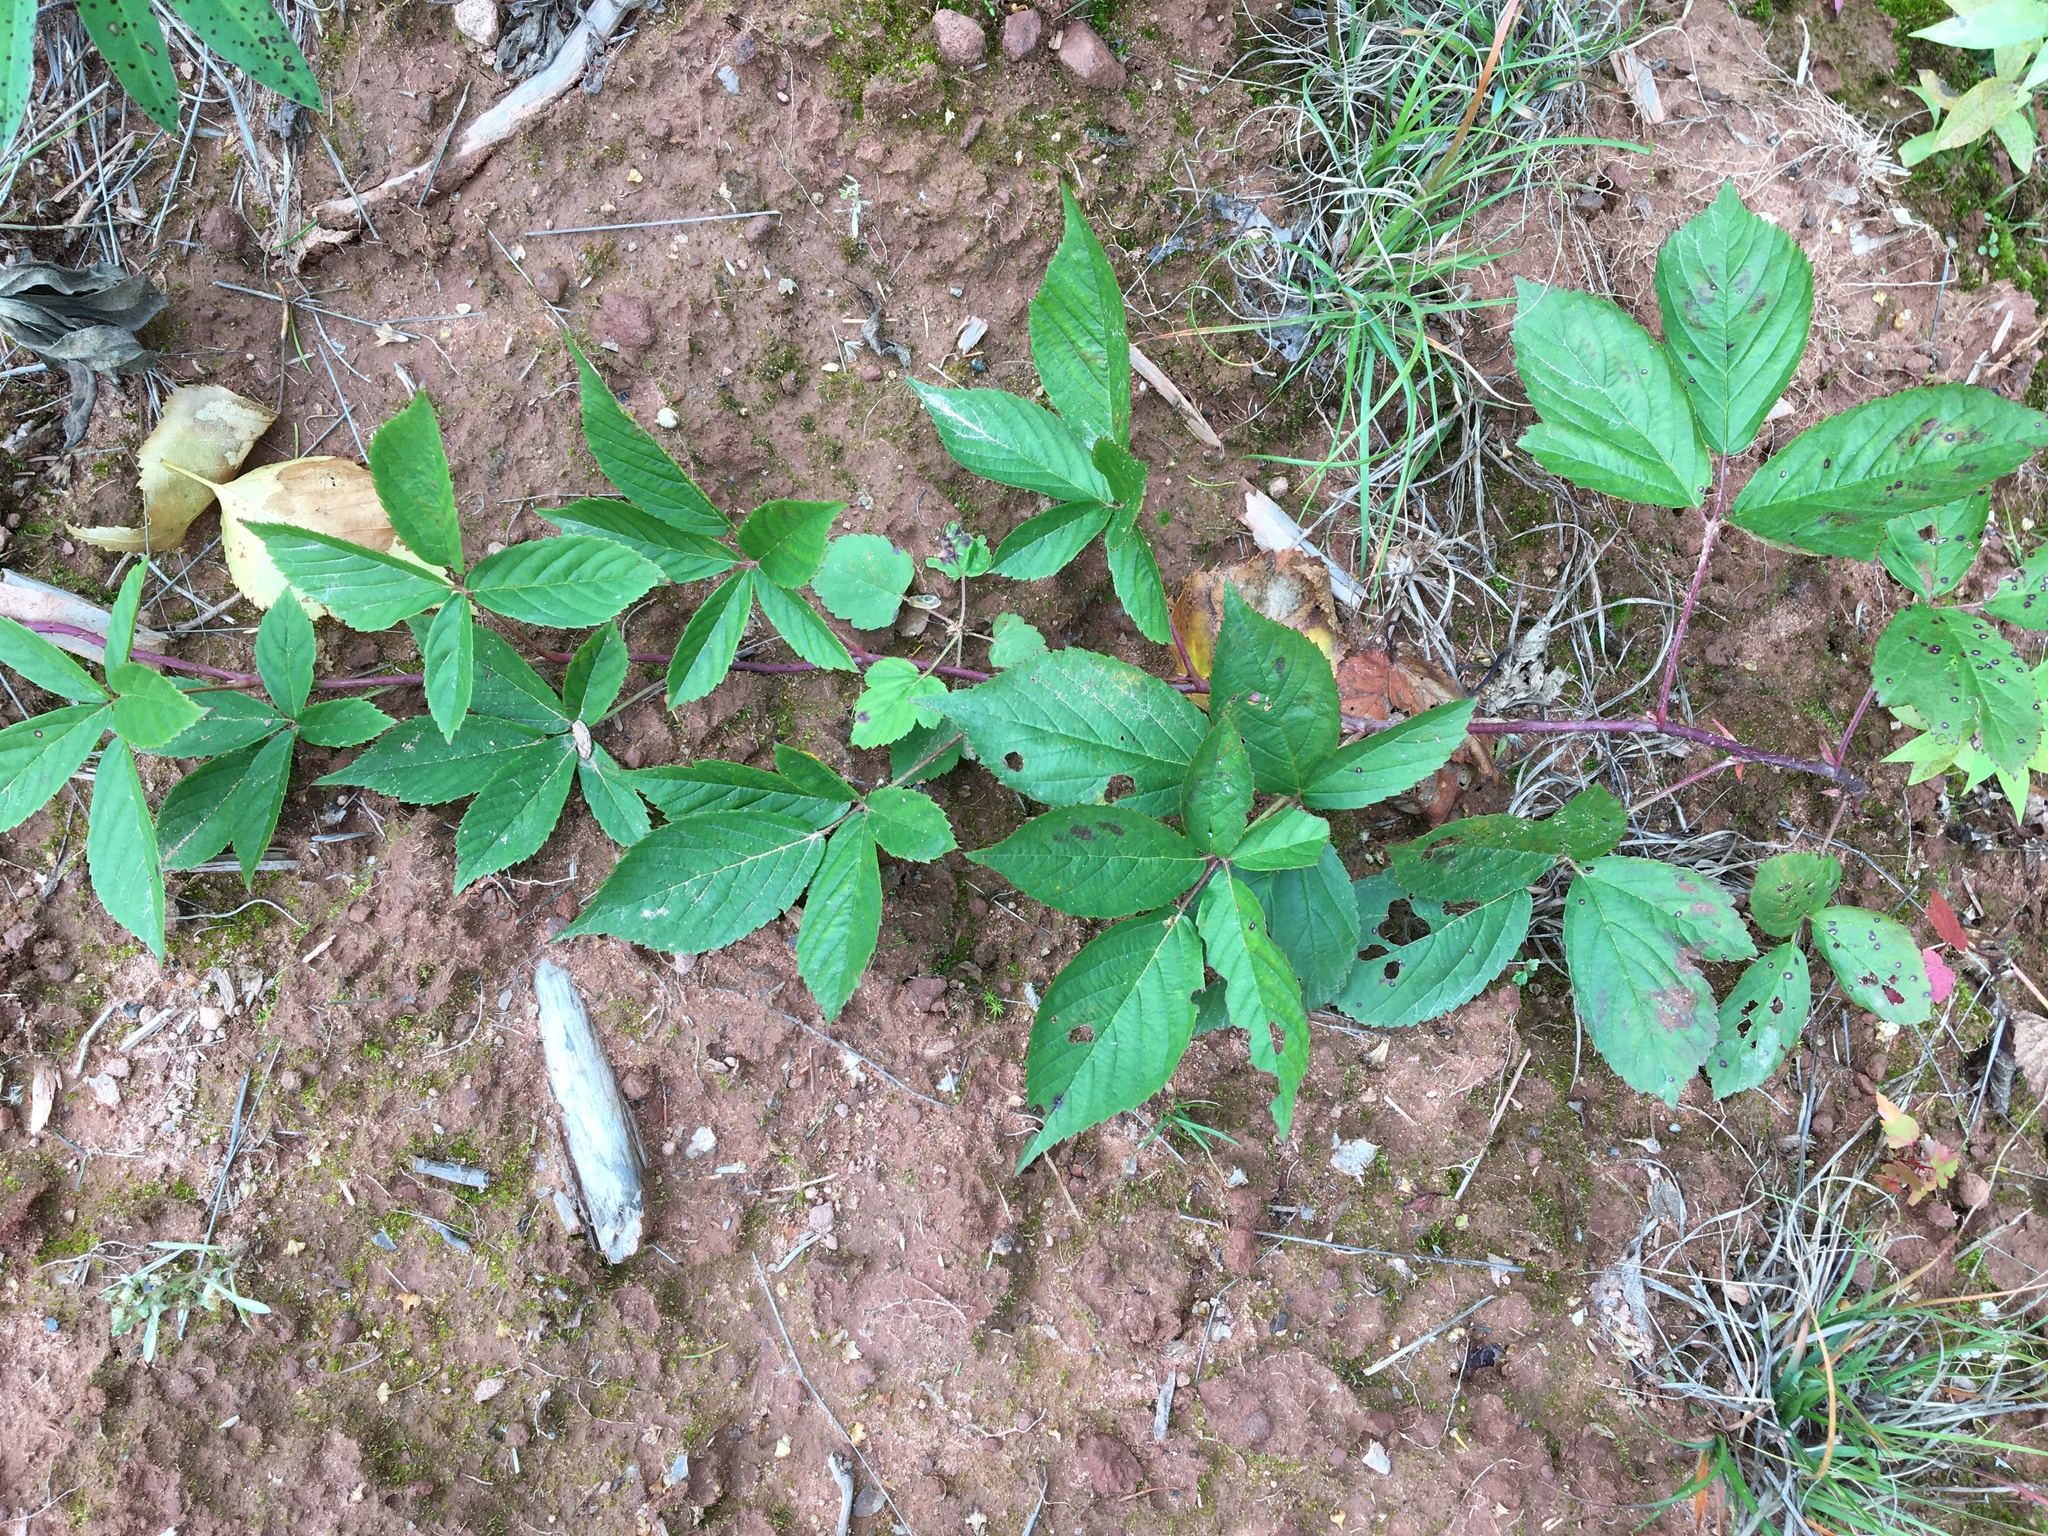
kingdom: Plantae
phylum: Tracheophyta
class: Magnoliopsida
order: Rosales
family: Rosaceae
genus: Rubus
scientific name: Rubus allegheniensis
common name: Allegheny blackberry
